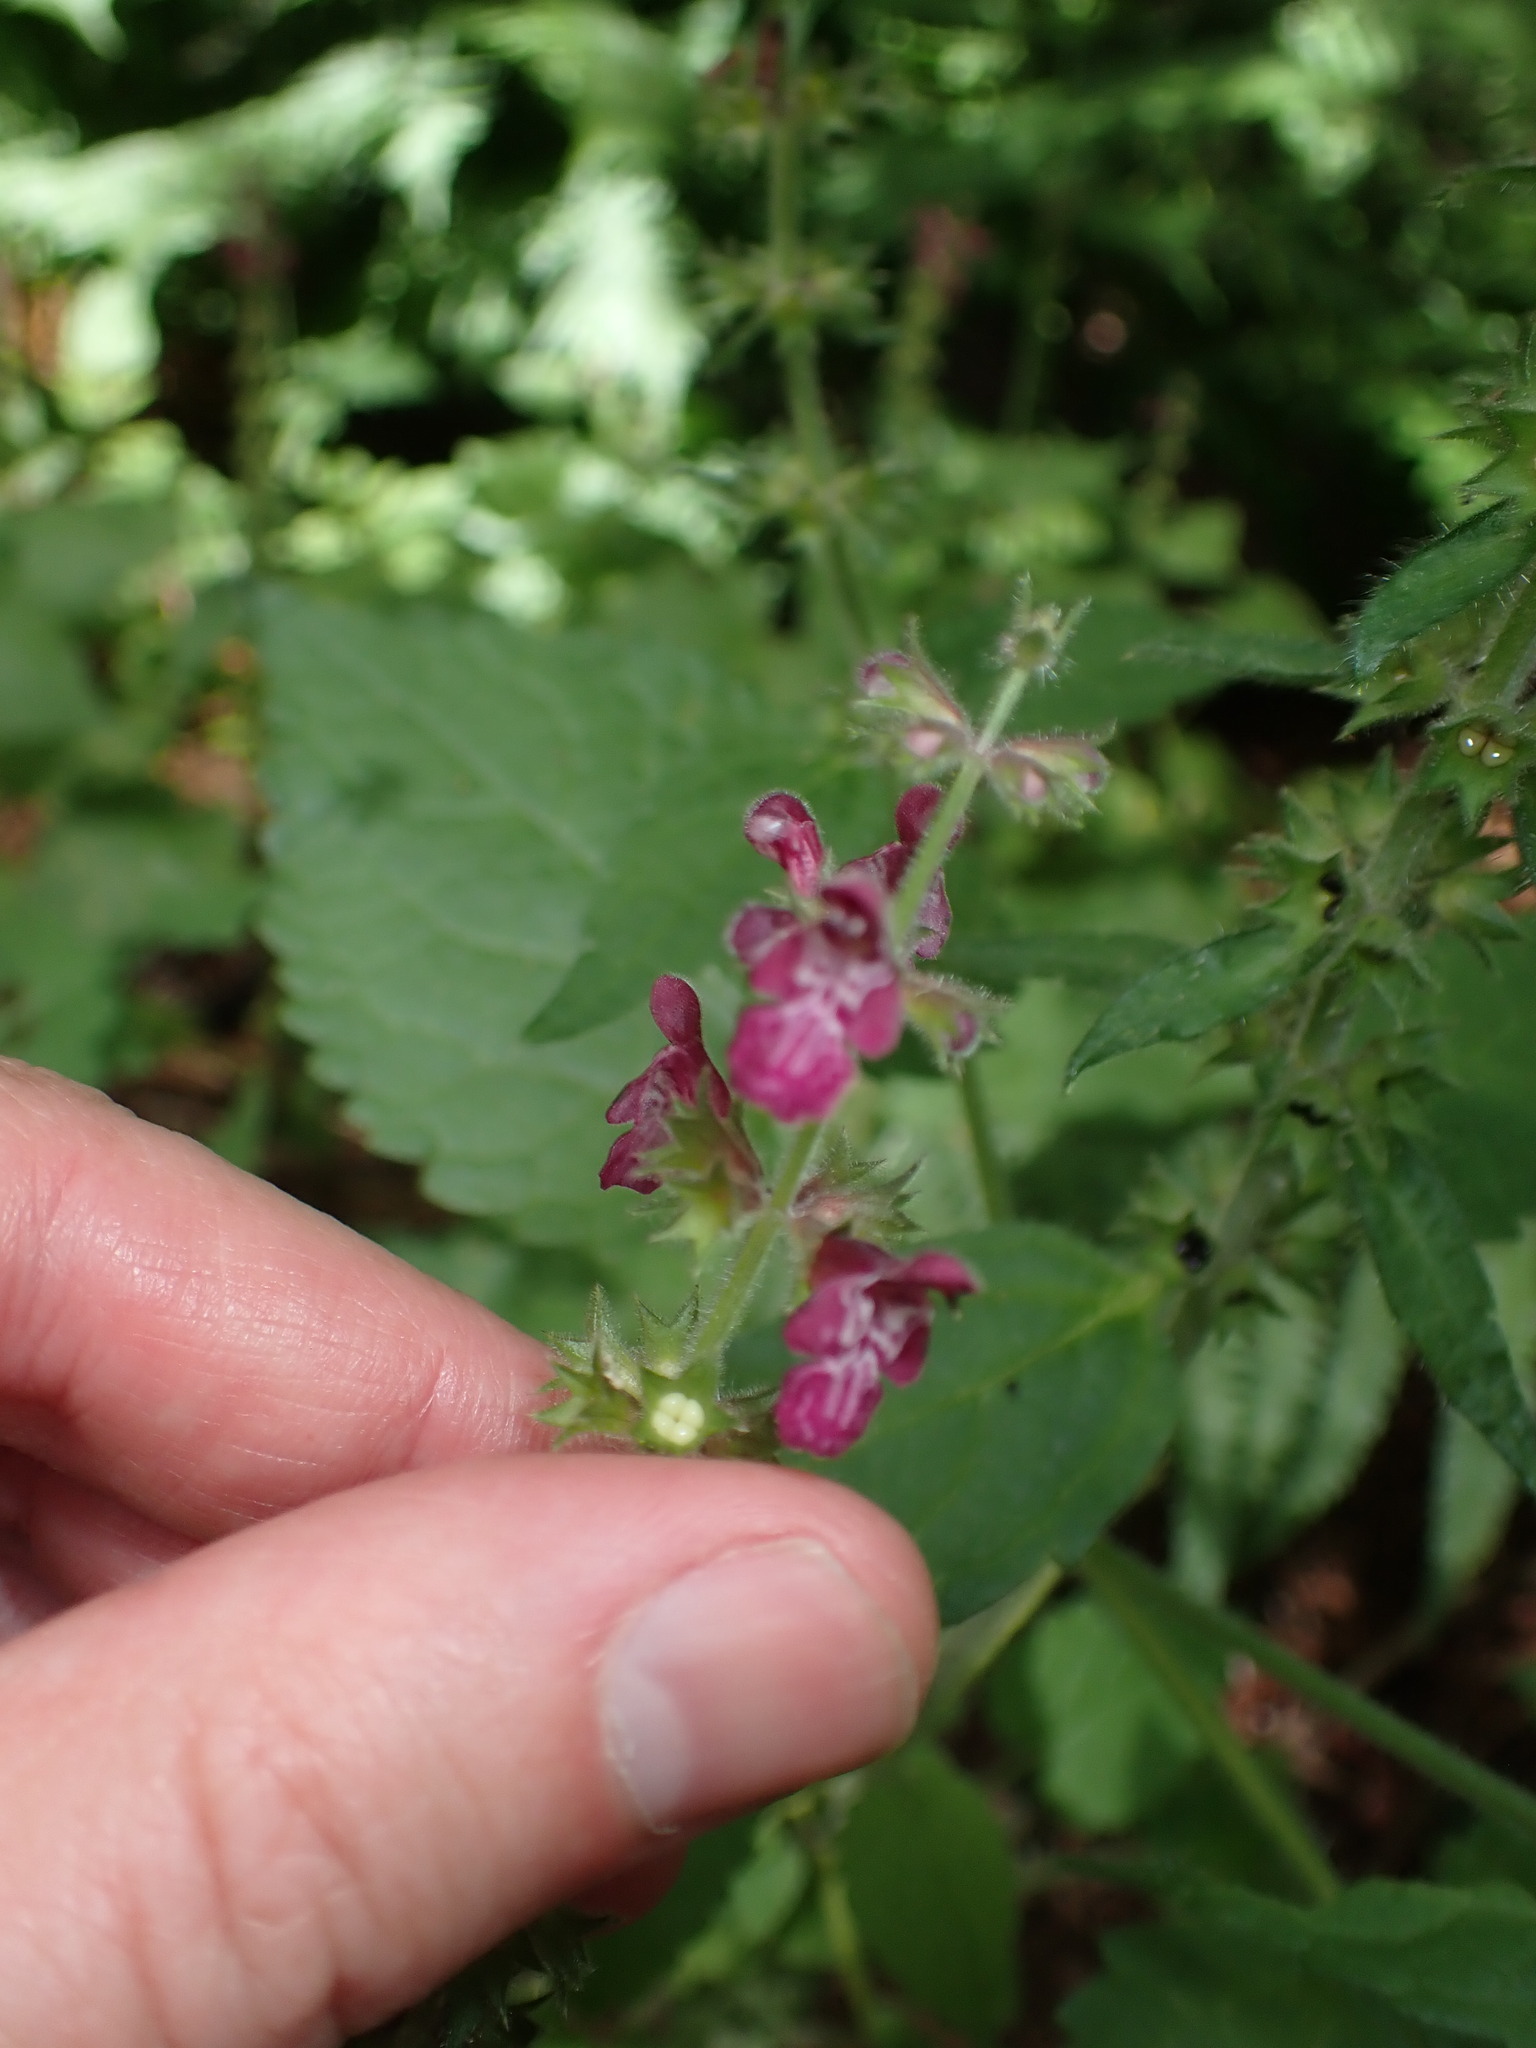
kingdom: Plantae
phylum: Tracheophyta
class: Magnoliopsida
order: Lamiales
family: Lamiaceae
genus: Stachys
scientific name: Stachys sylvatica
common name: Hedge woundwort
